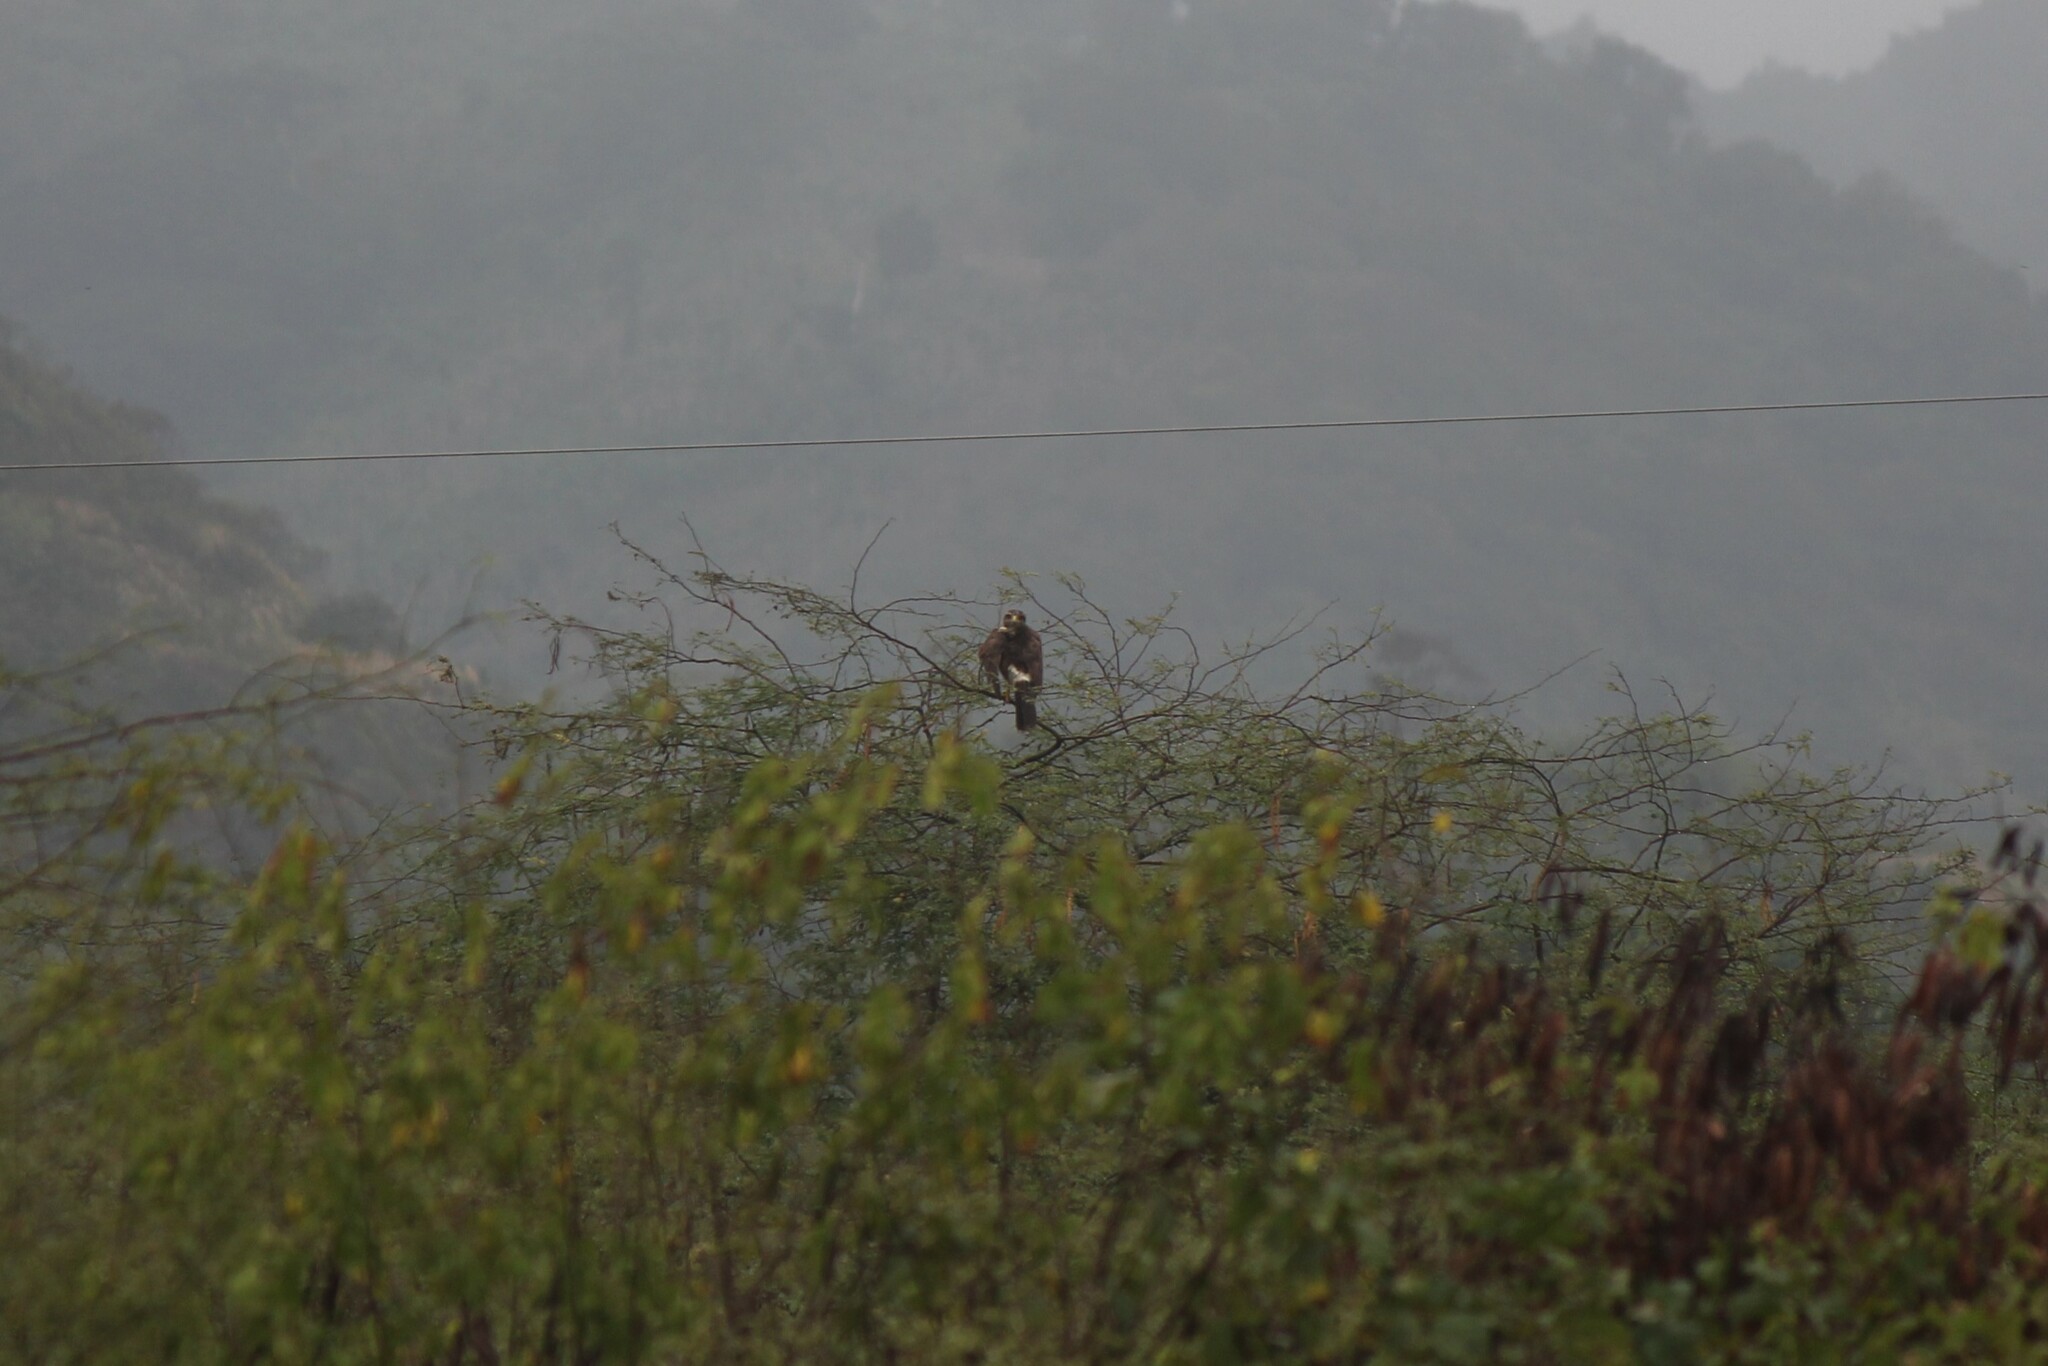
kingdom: Animalia
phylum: Chordata
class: Aves
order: Accipitriformes
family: Accipitridae
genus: Parabuteo
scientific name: Parabuteo unicinctus
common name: Harris's hawk
